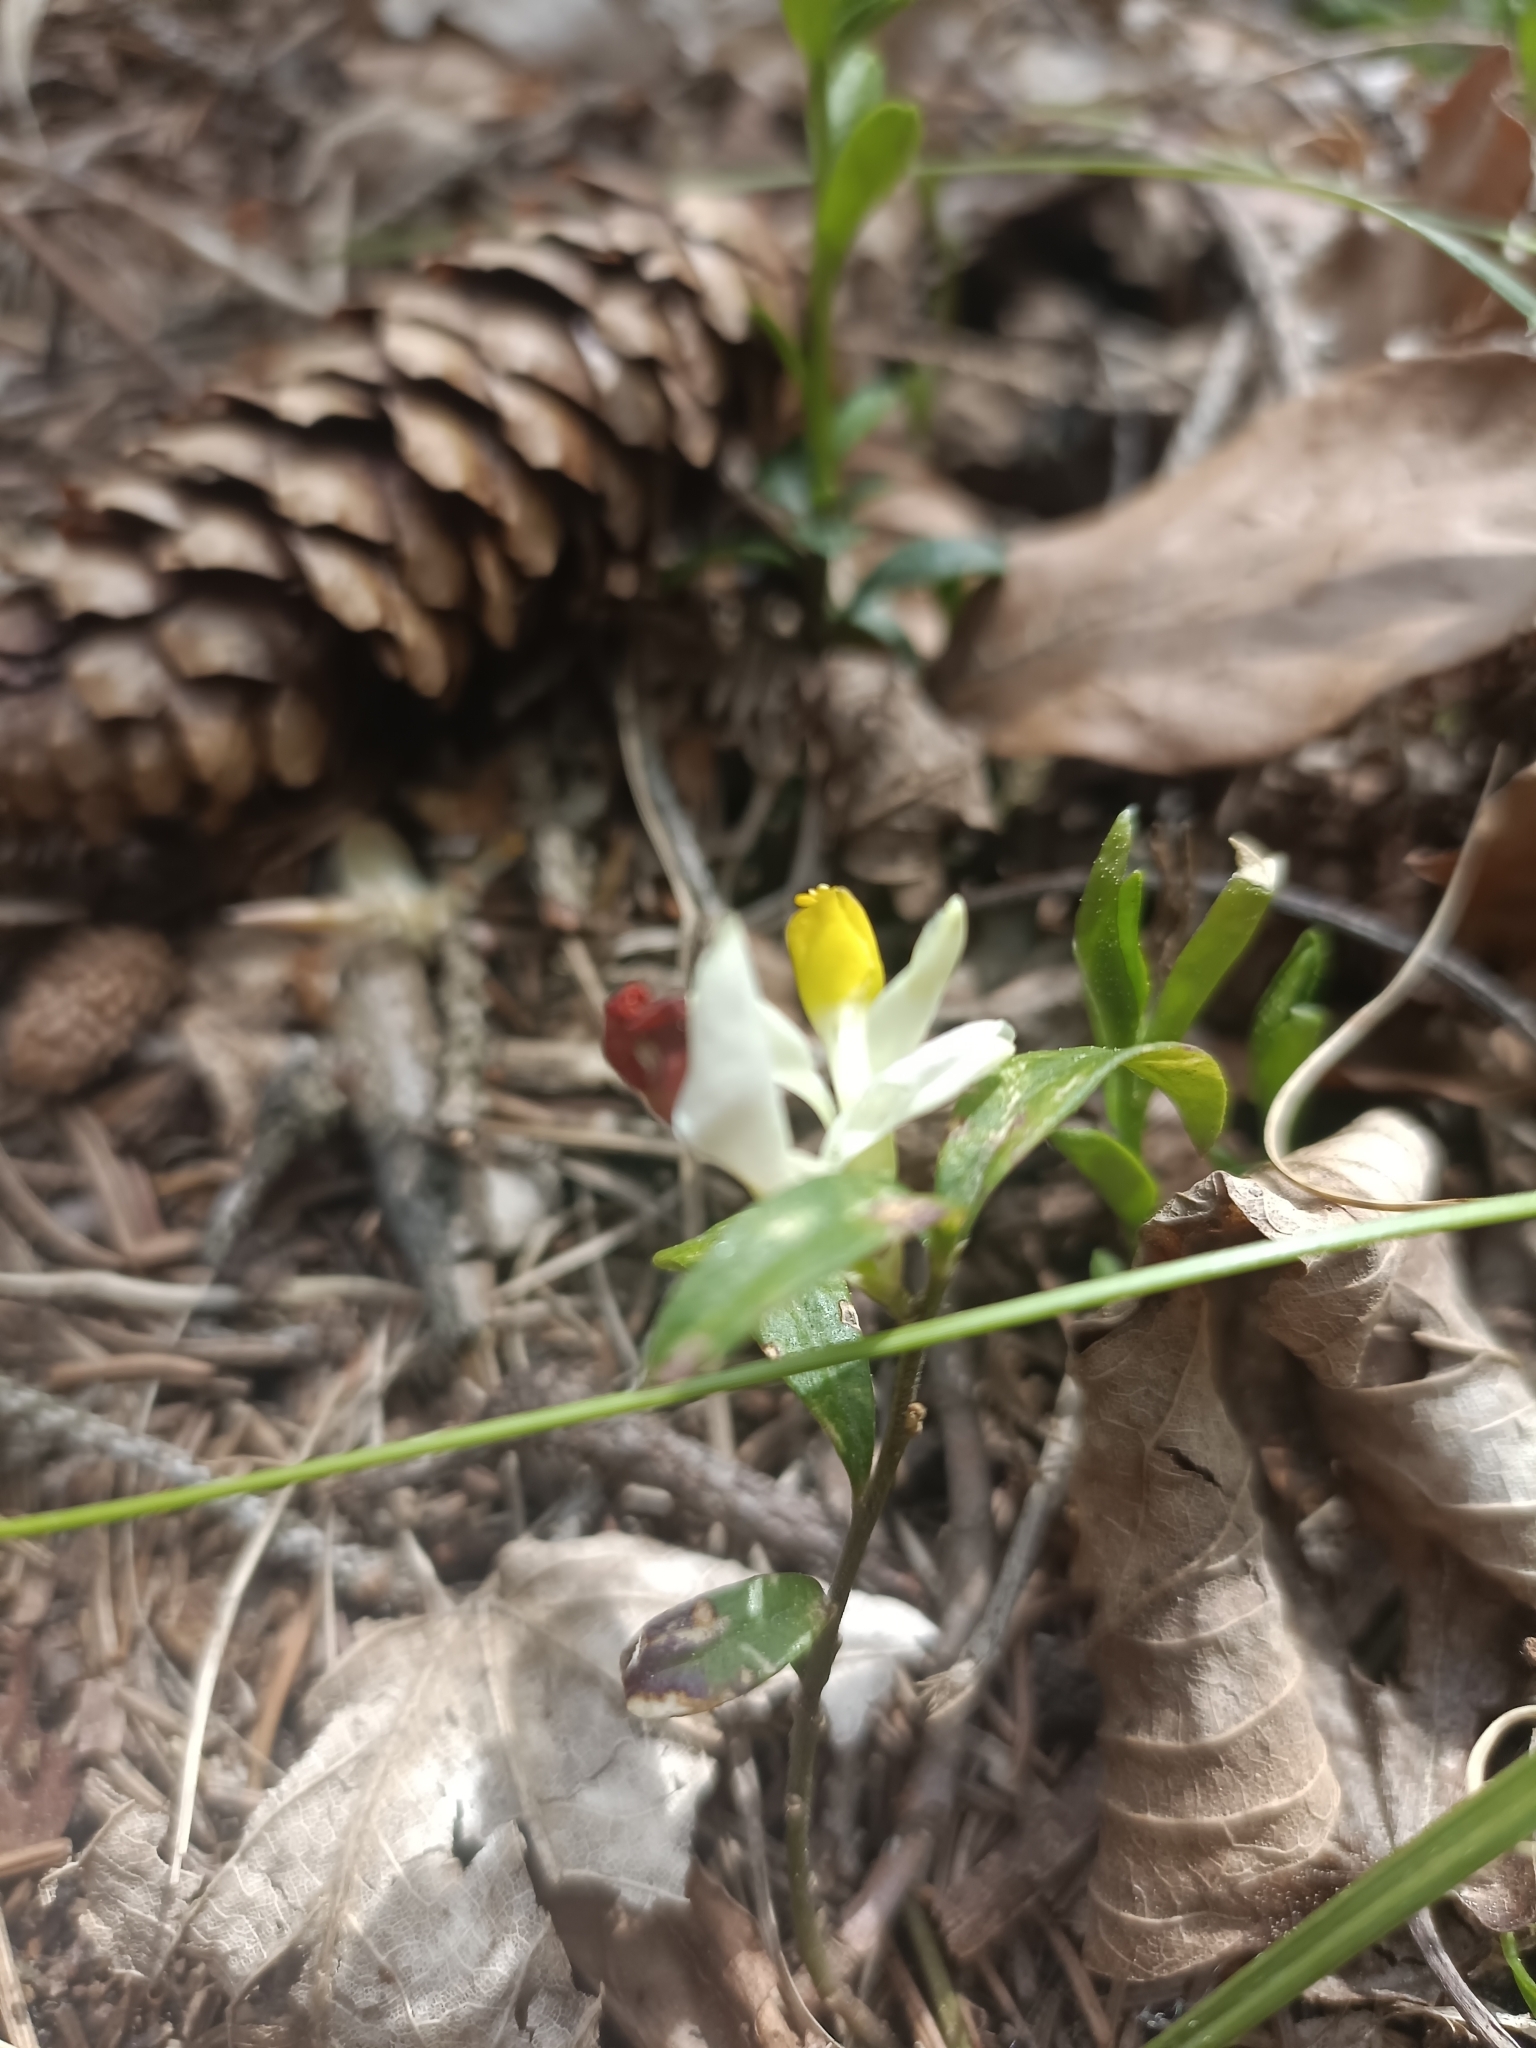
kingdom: Plantae
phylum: Tracheophyta
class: Magnoliopsida
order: Fabales
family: Polygalaceae
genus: Polygaloides
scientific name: Polygaloides chamaebuxus
